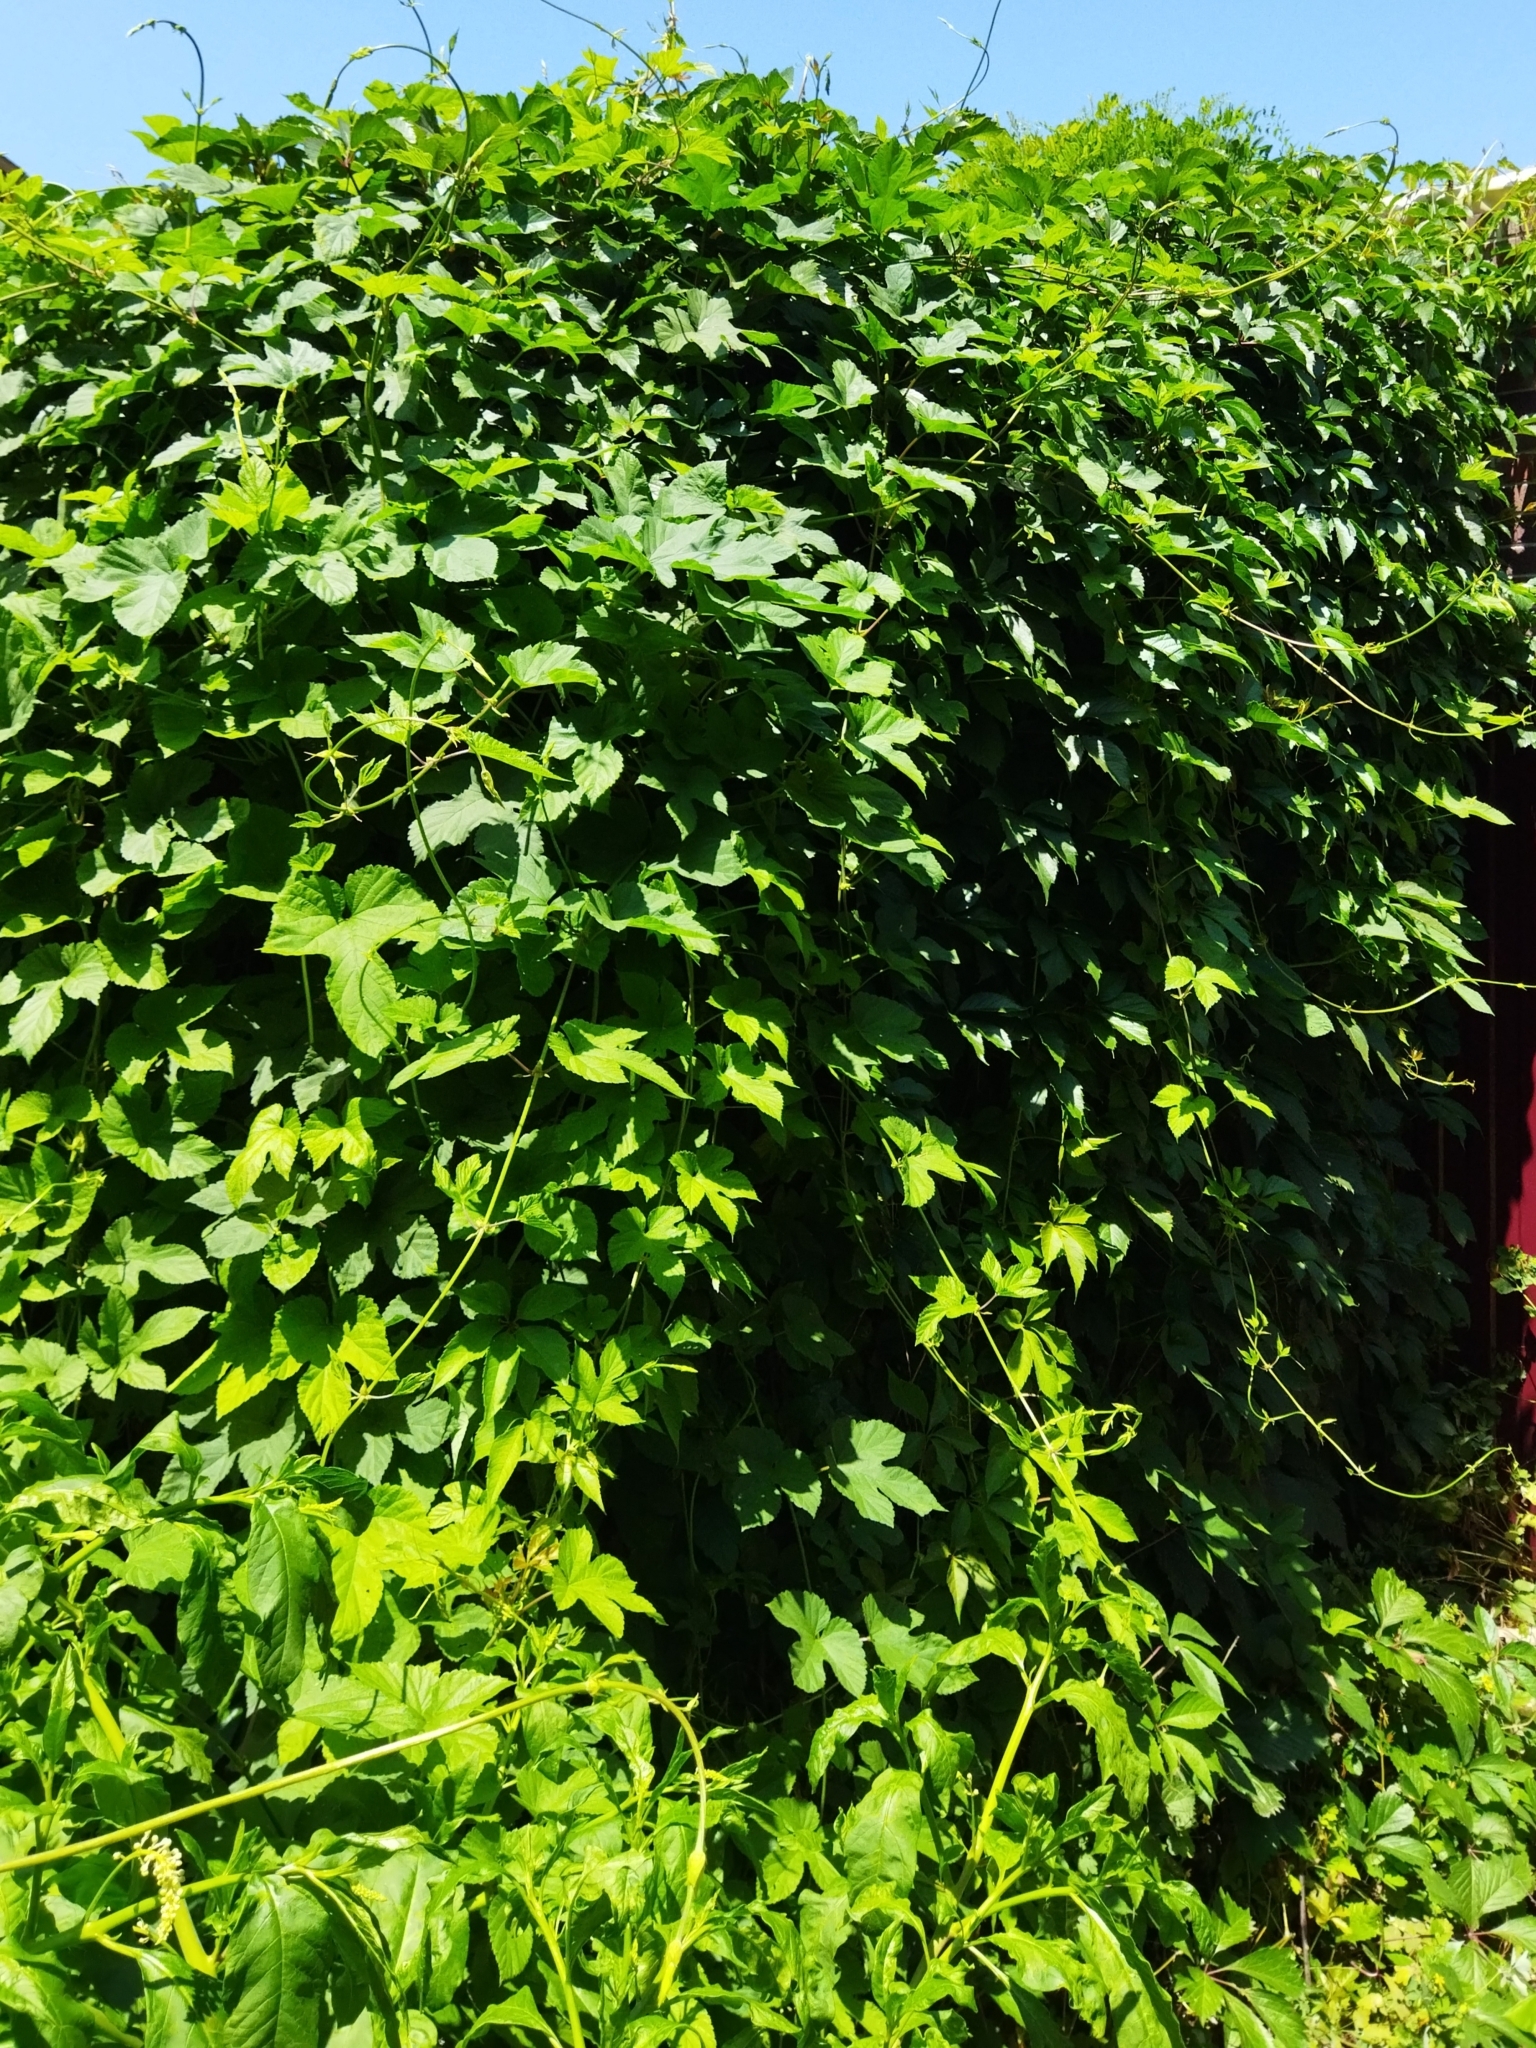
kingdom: Plantae
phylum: Tracheophyta
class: Magnoliopsida
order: Rosales
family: Cannabaceae
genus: Humulus
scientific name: Humulus lupulus
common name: Hop
